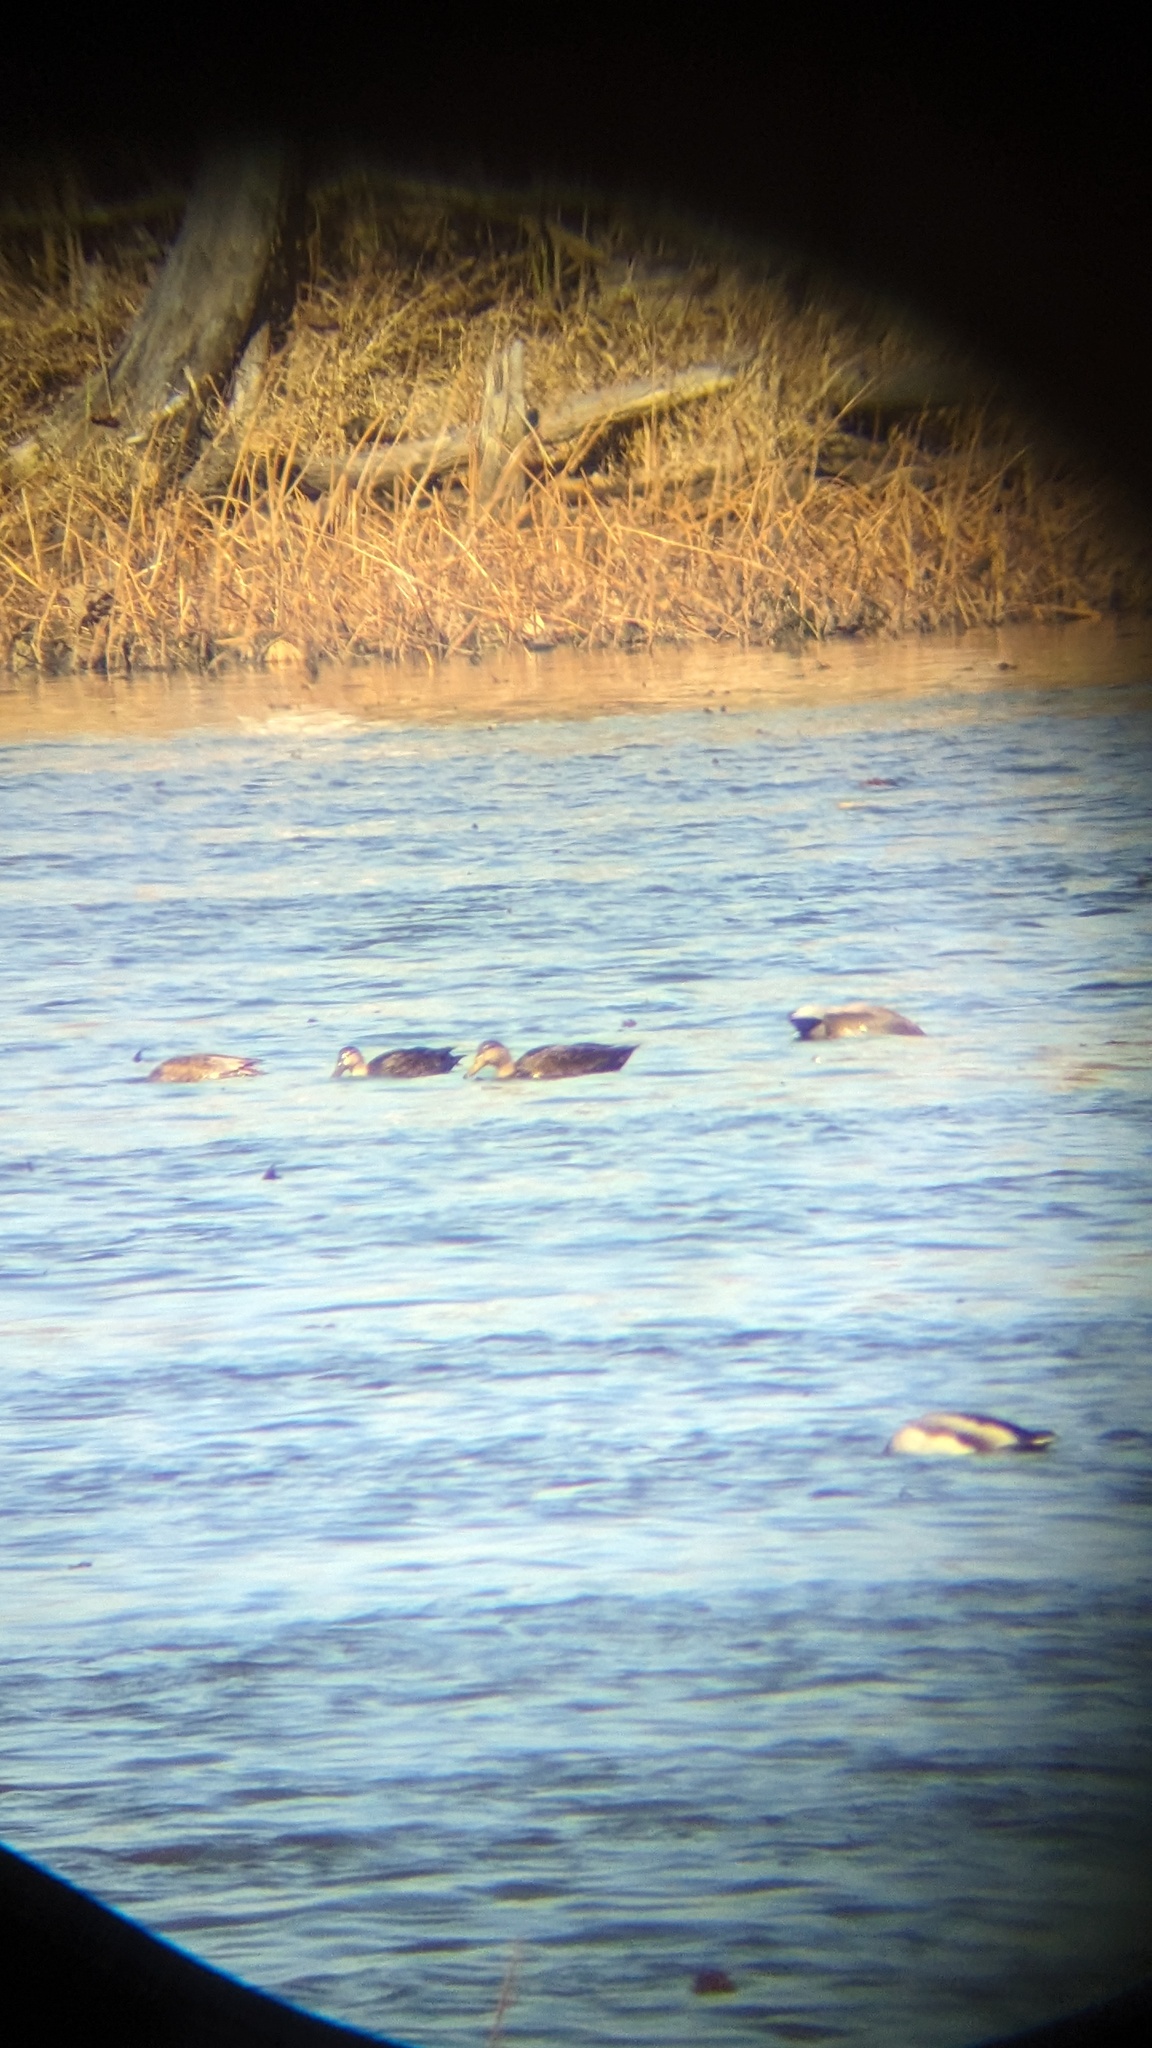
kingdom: Animalia
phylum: Chordata
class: Aves
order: Anseriformes
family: Anatidae
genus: Anas
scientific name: Anas rubripes
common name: American black duck
